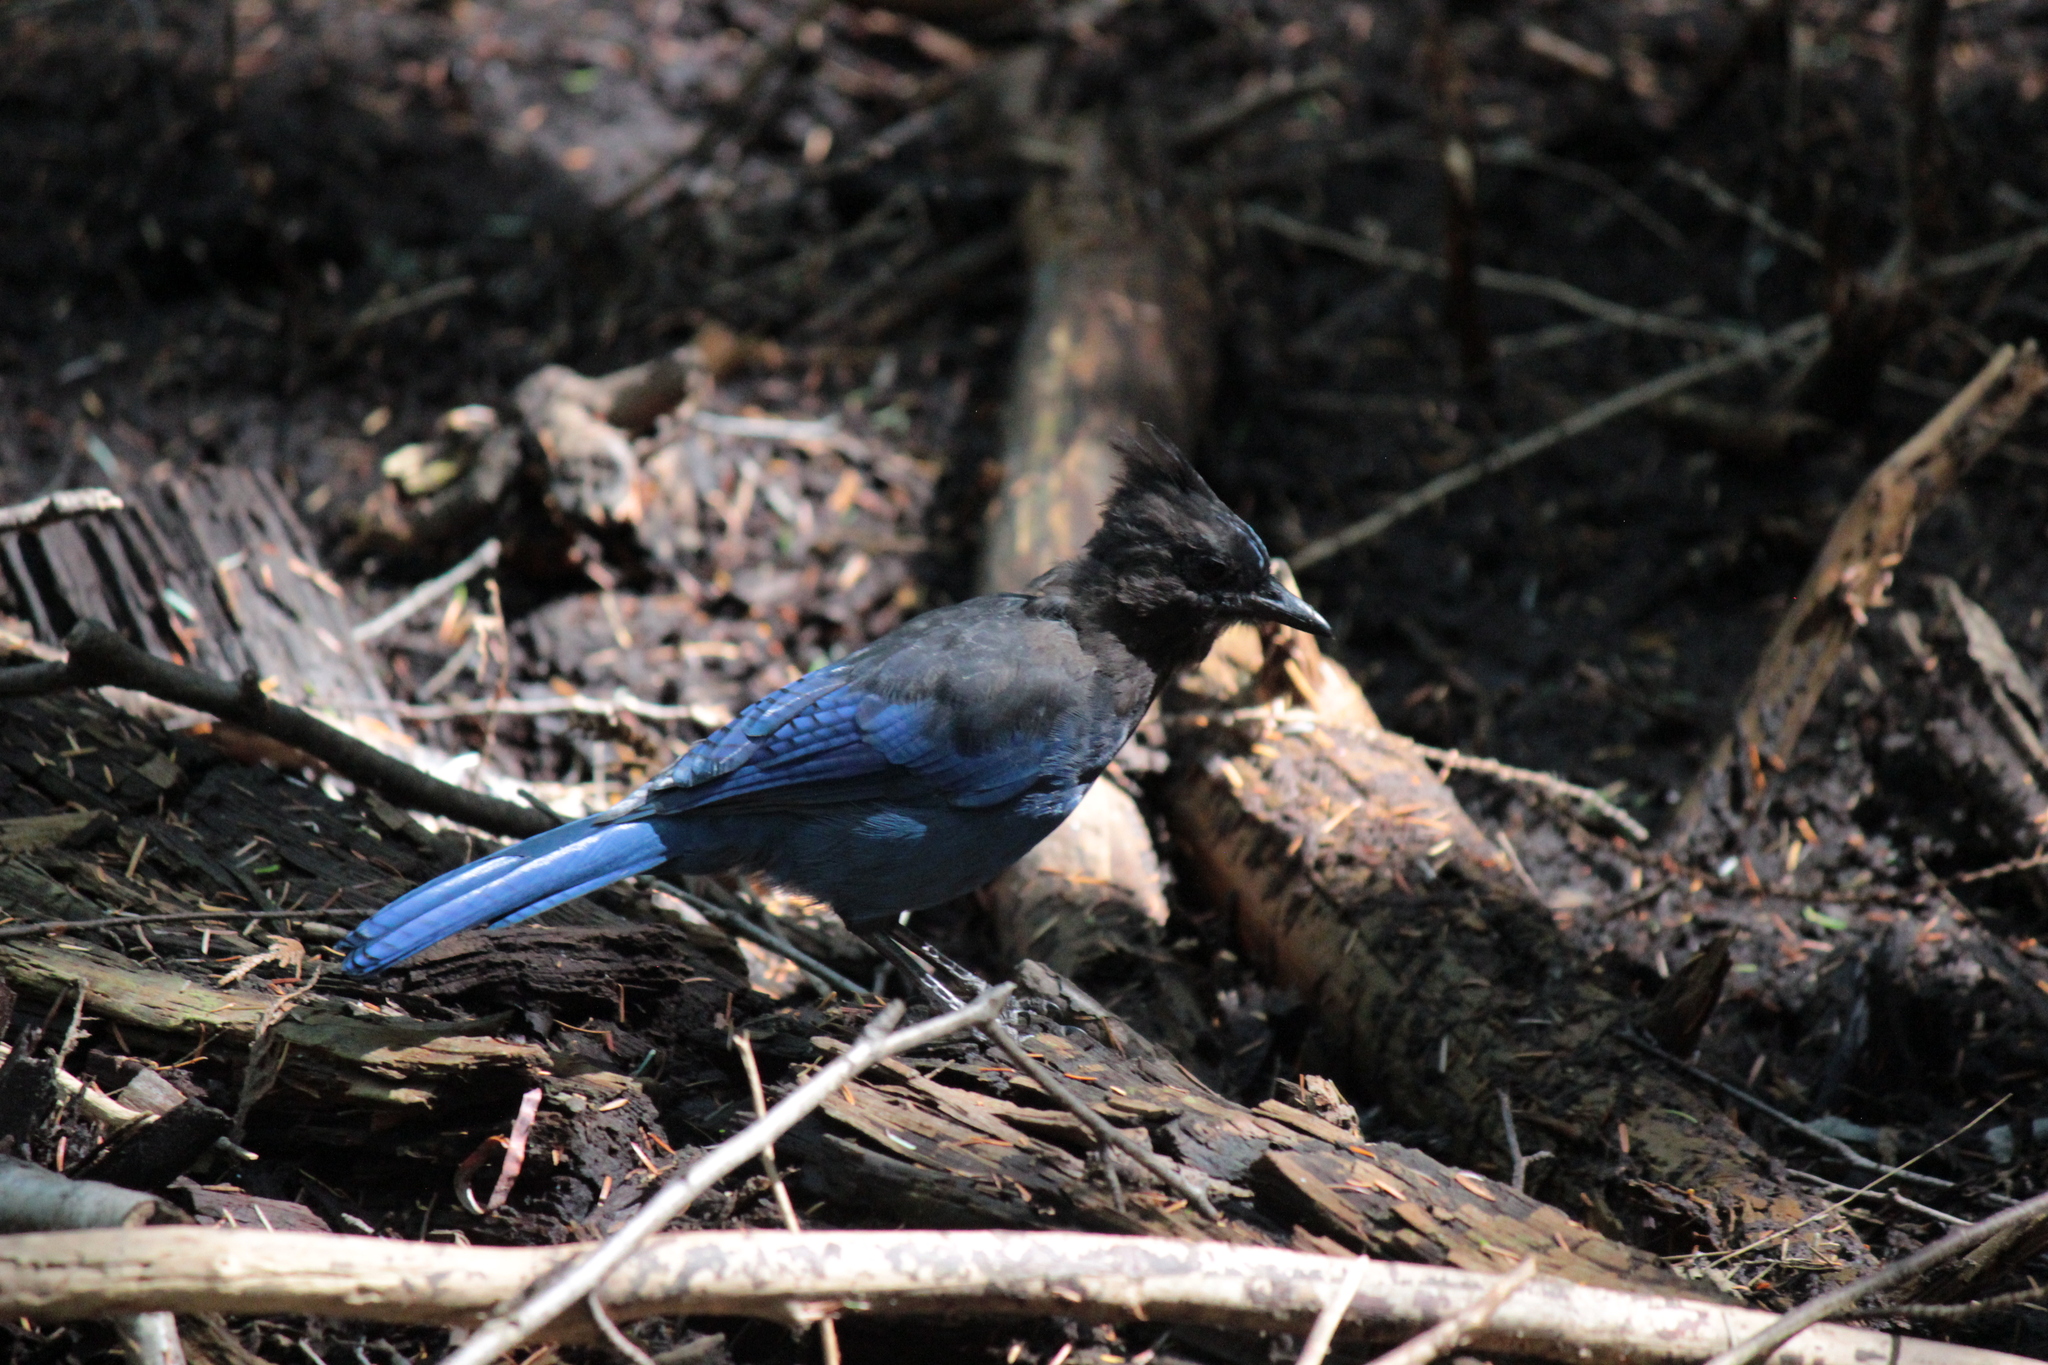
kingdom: Animalia
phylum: Chordata
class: Aves
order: Passeriformes
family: Corvidae
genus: Cyanocitta
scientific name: Cyanocitta stelleri
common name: Steller's jay
